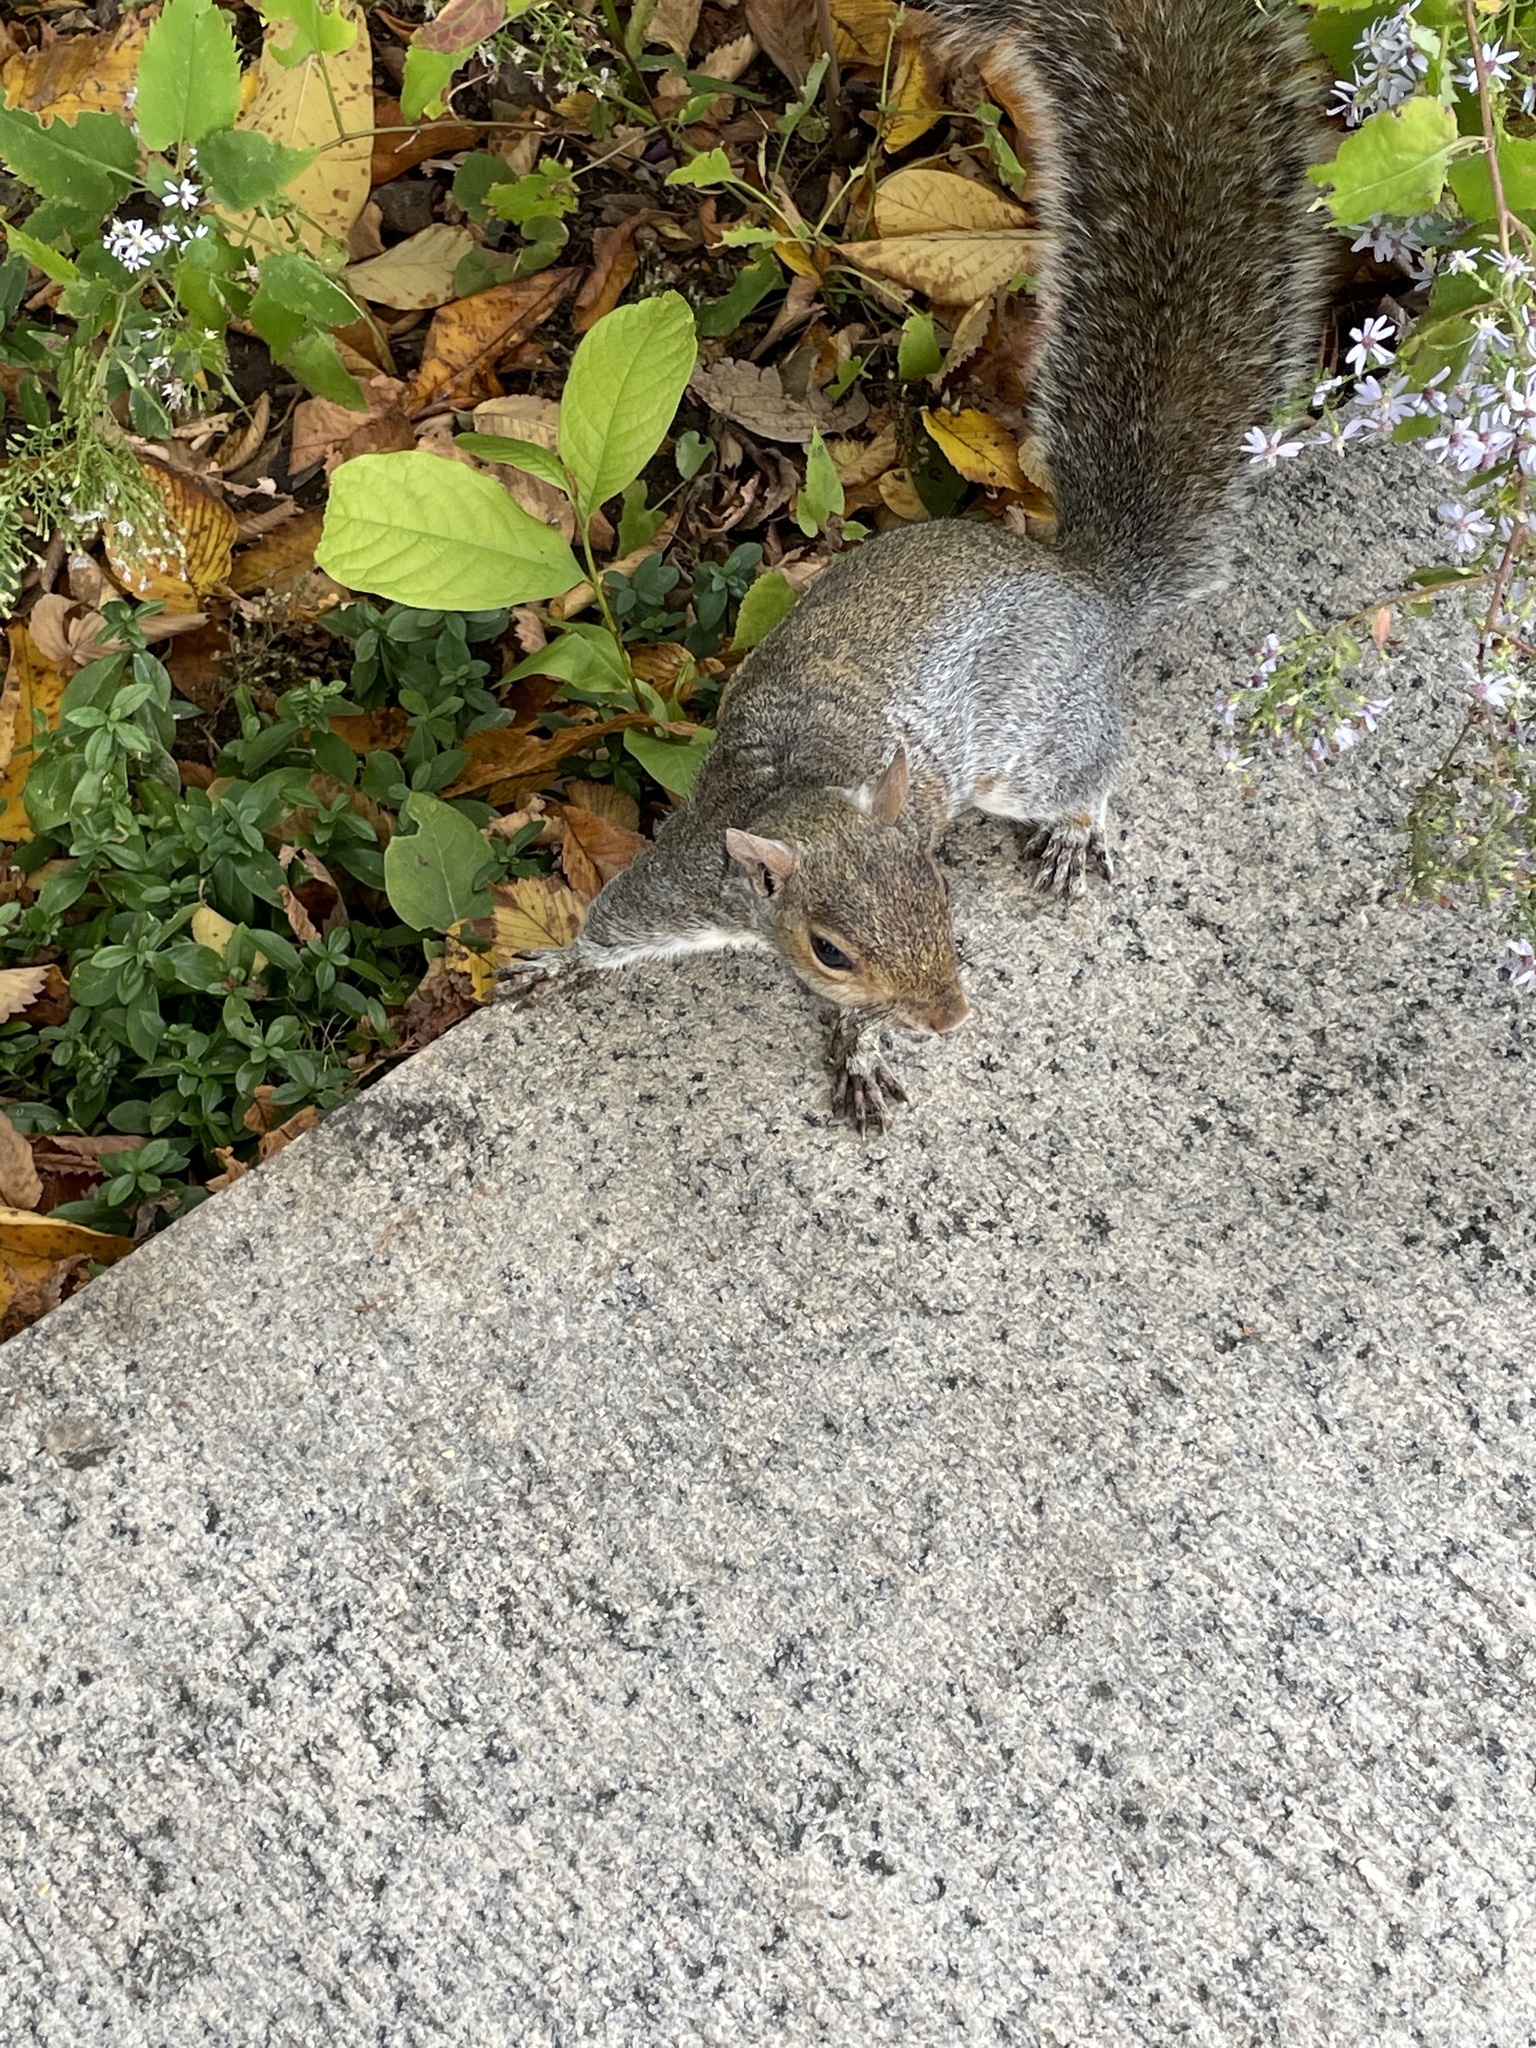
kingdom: Animalia
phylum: Chordata
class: Mammalia
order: Rodentia
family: Sciuridae
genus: Sciurus
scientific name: Sciurus carolinensis
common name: Eastern gray squirrel
